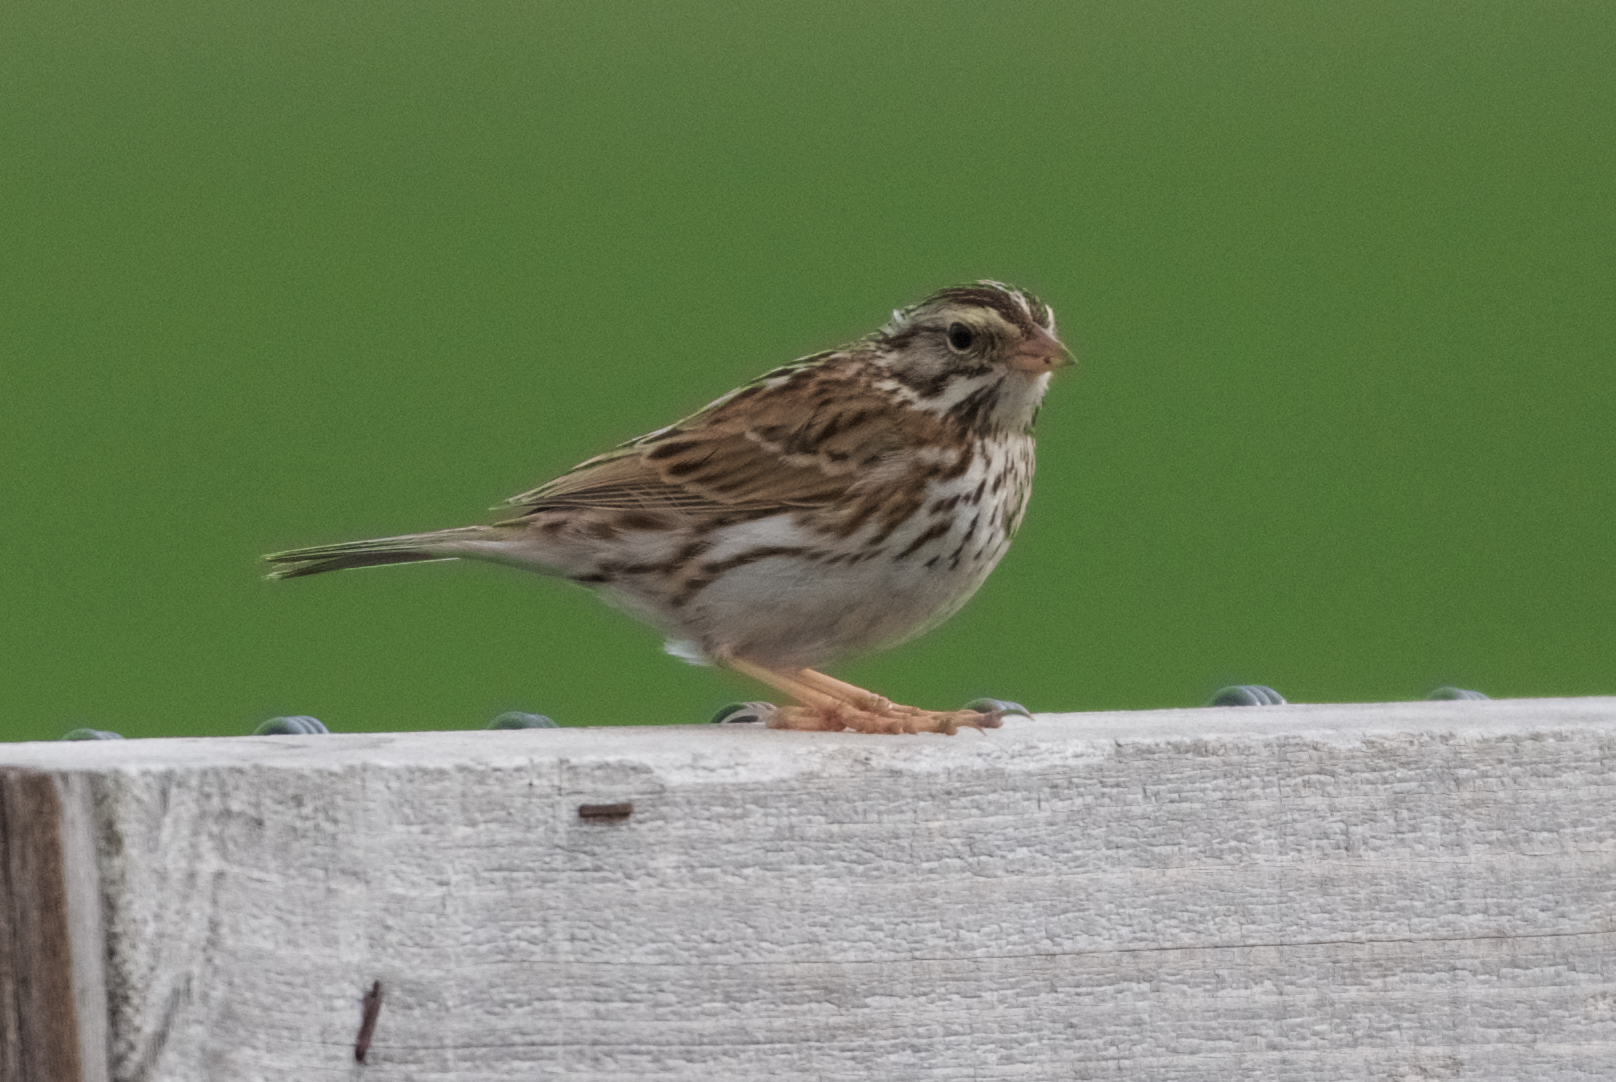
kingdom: Animalia
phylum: Chordata
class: Aves
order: Passeriformes
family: Passerellidae
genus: Passerculus
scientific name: Passerculus sandwichensis
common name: Savannah sparrow
